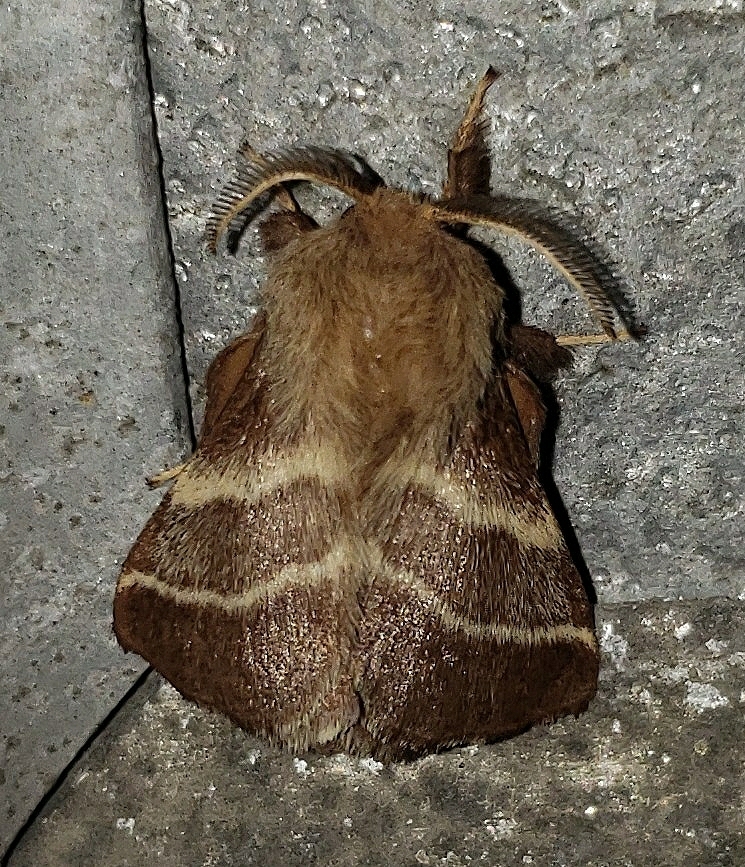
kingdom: Animalia
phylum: Arthropoda
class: Insecta
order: Lepidoptera
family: Lasiocampidae
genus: Malacosoma
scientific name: Malacosoma americana
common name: Eastern tent caterpillar moth
